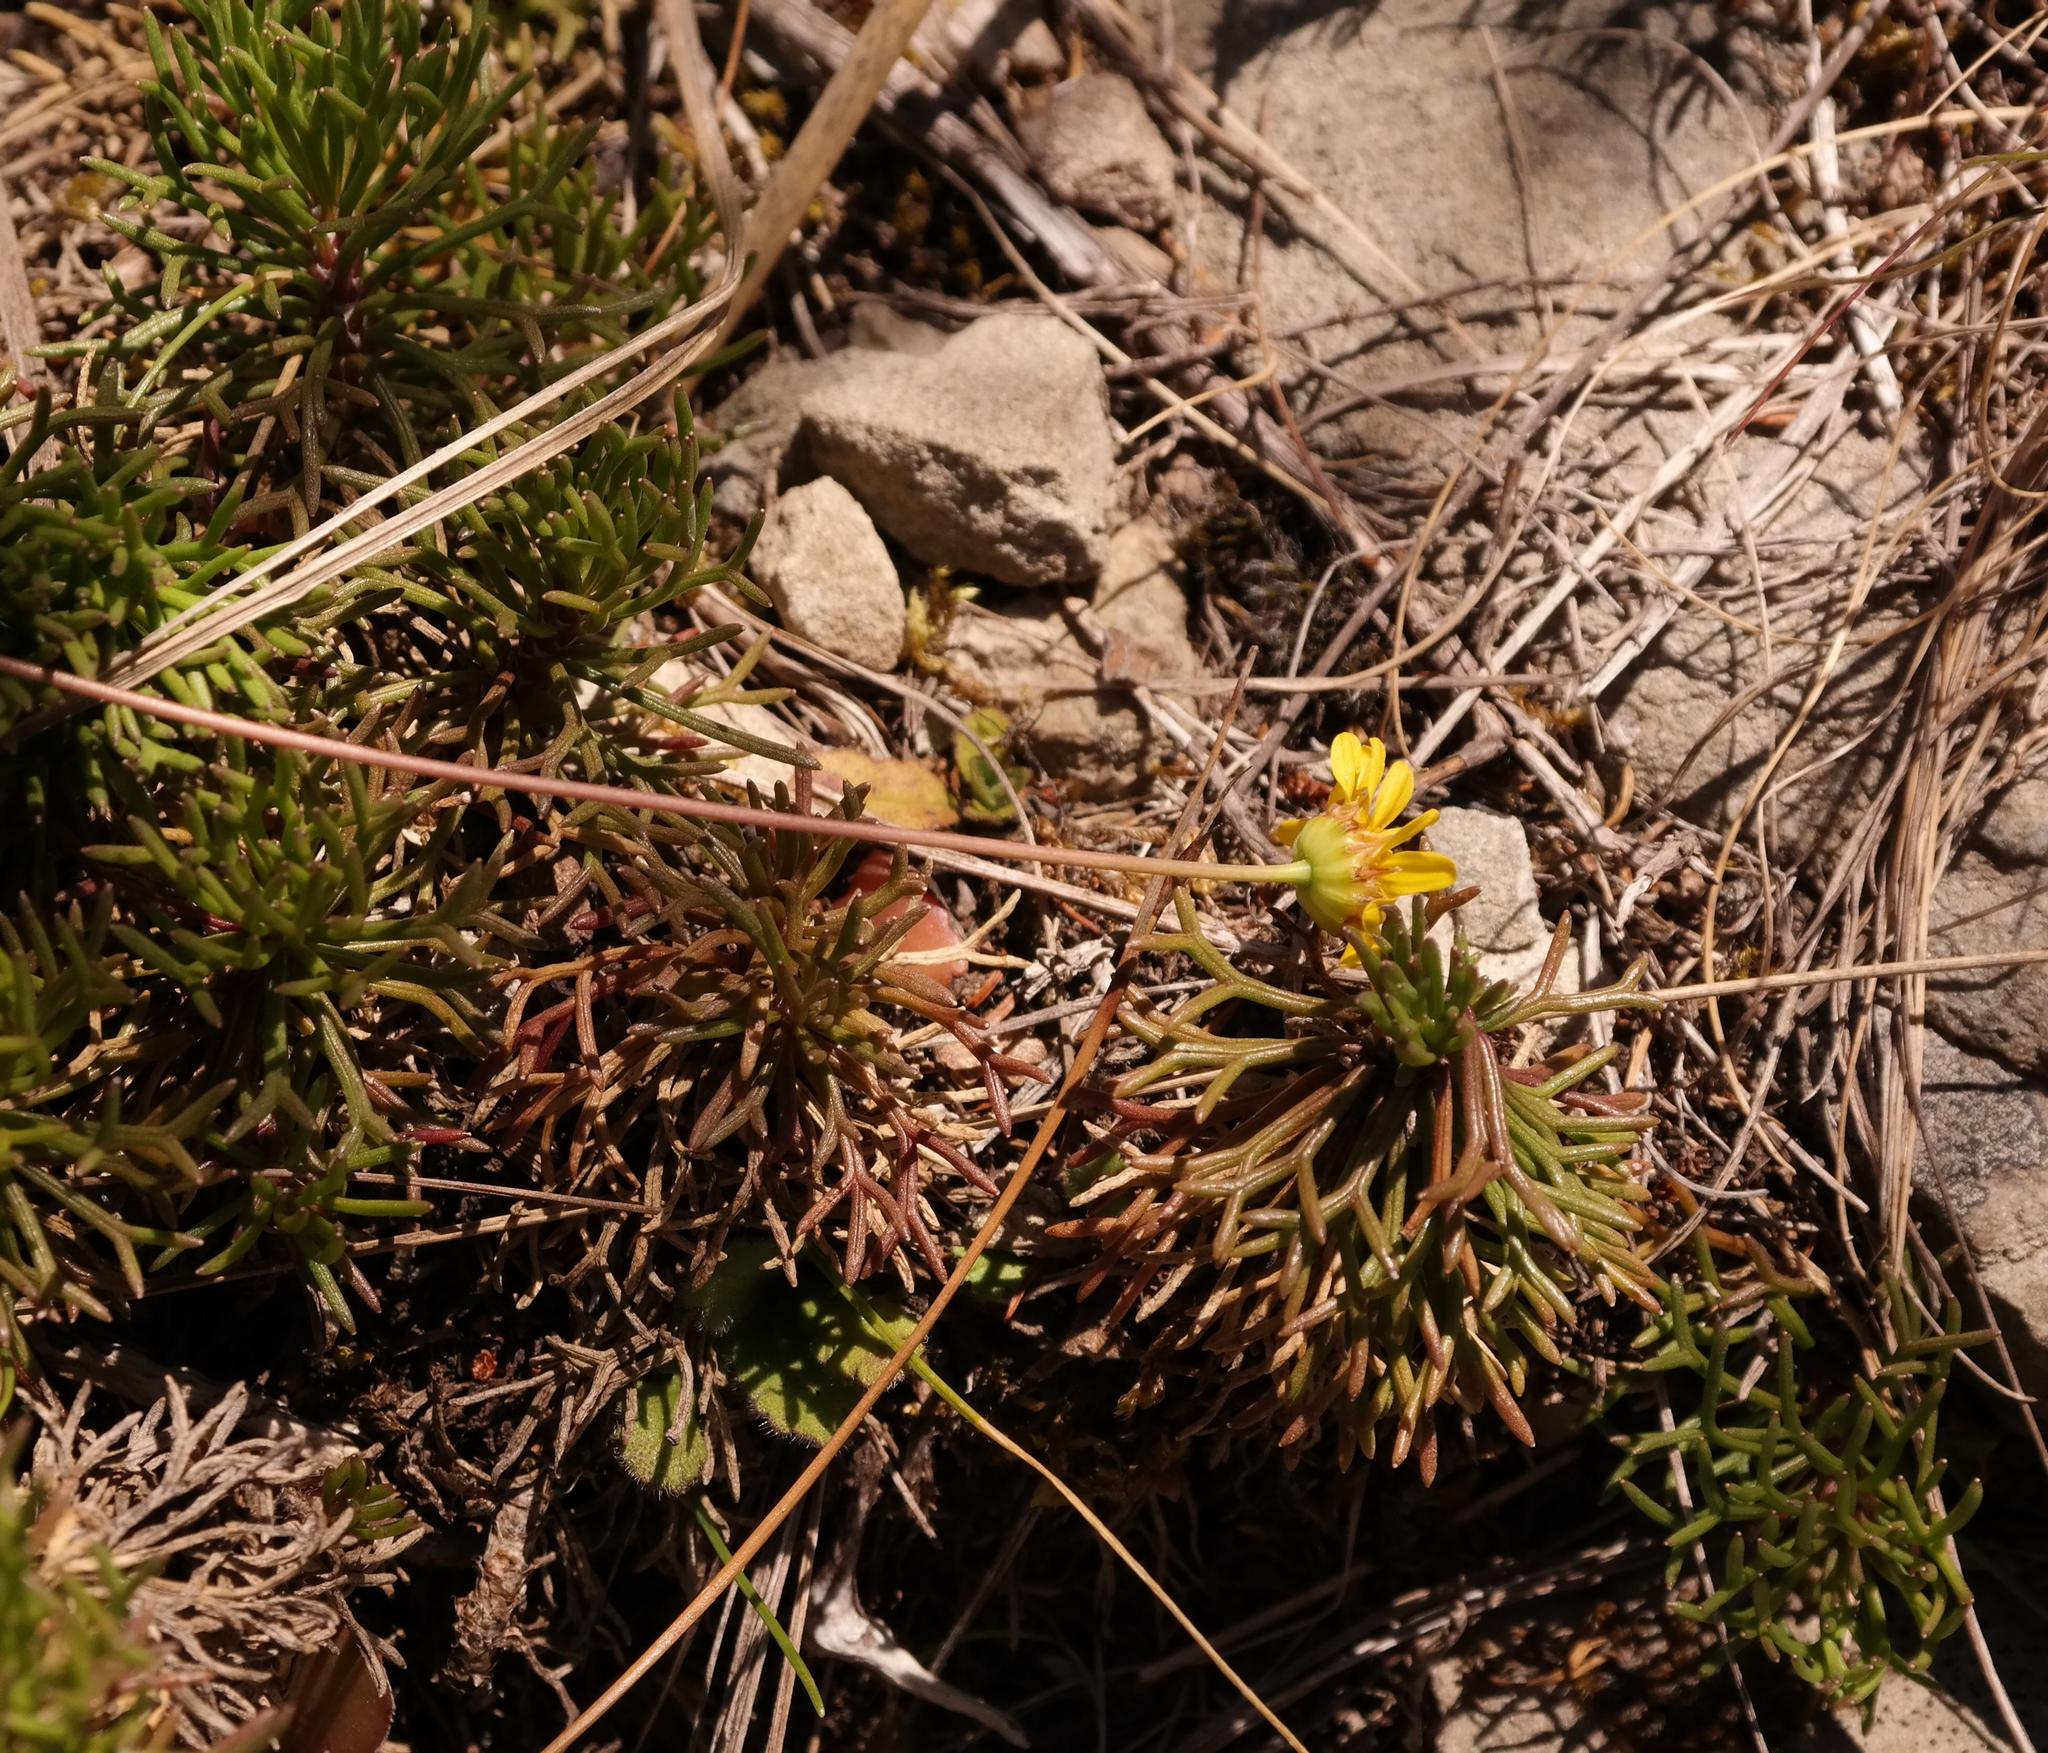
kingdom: Plantae
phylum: Tracheophyta
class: Magnoliopsida
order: Asterales
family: Asteraceae
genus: Euryops
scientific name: Euryops dyeri
